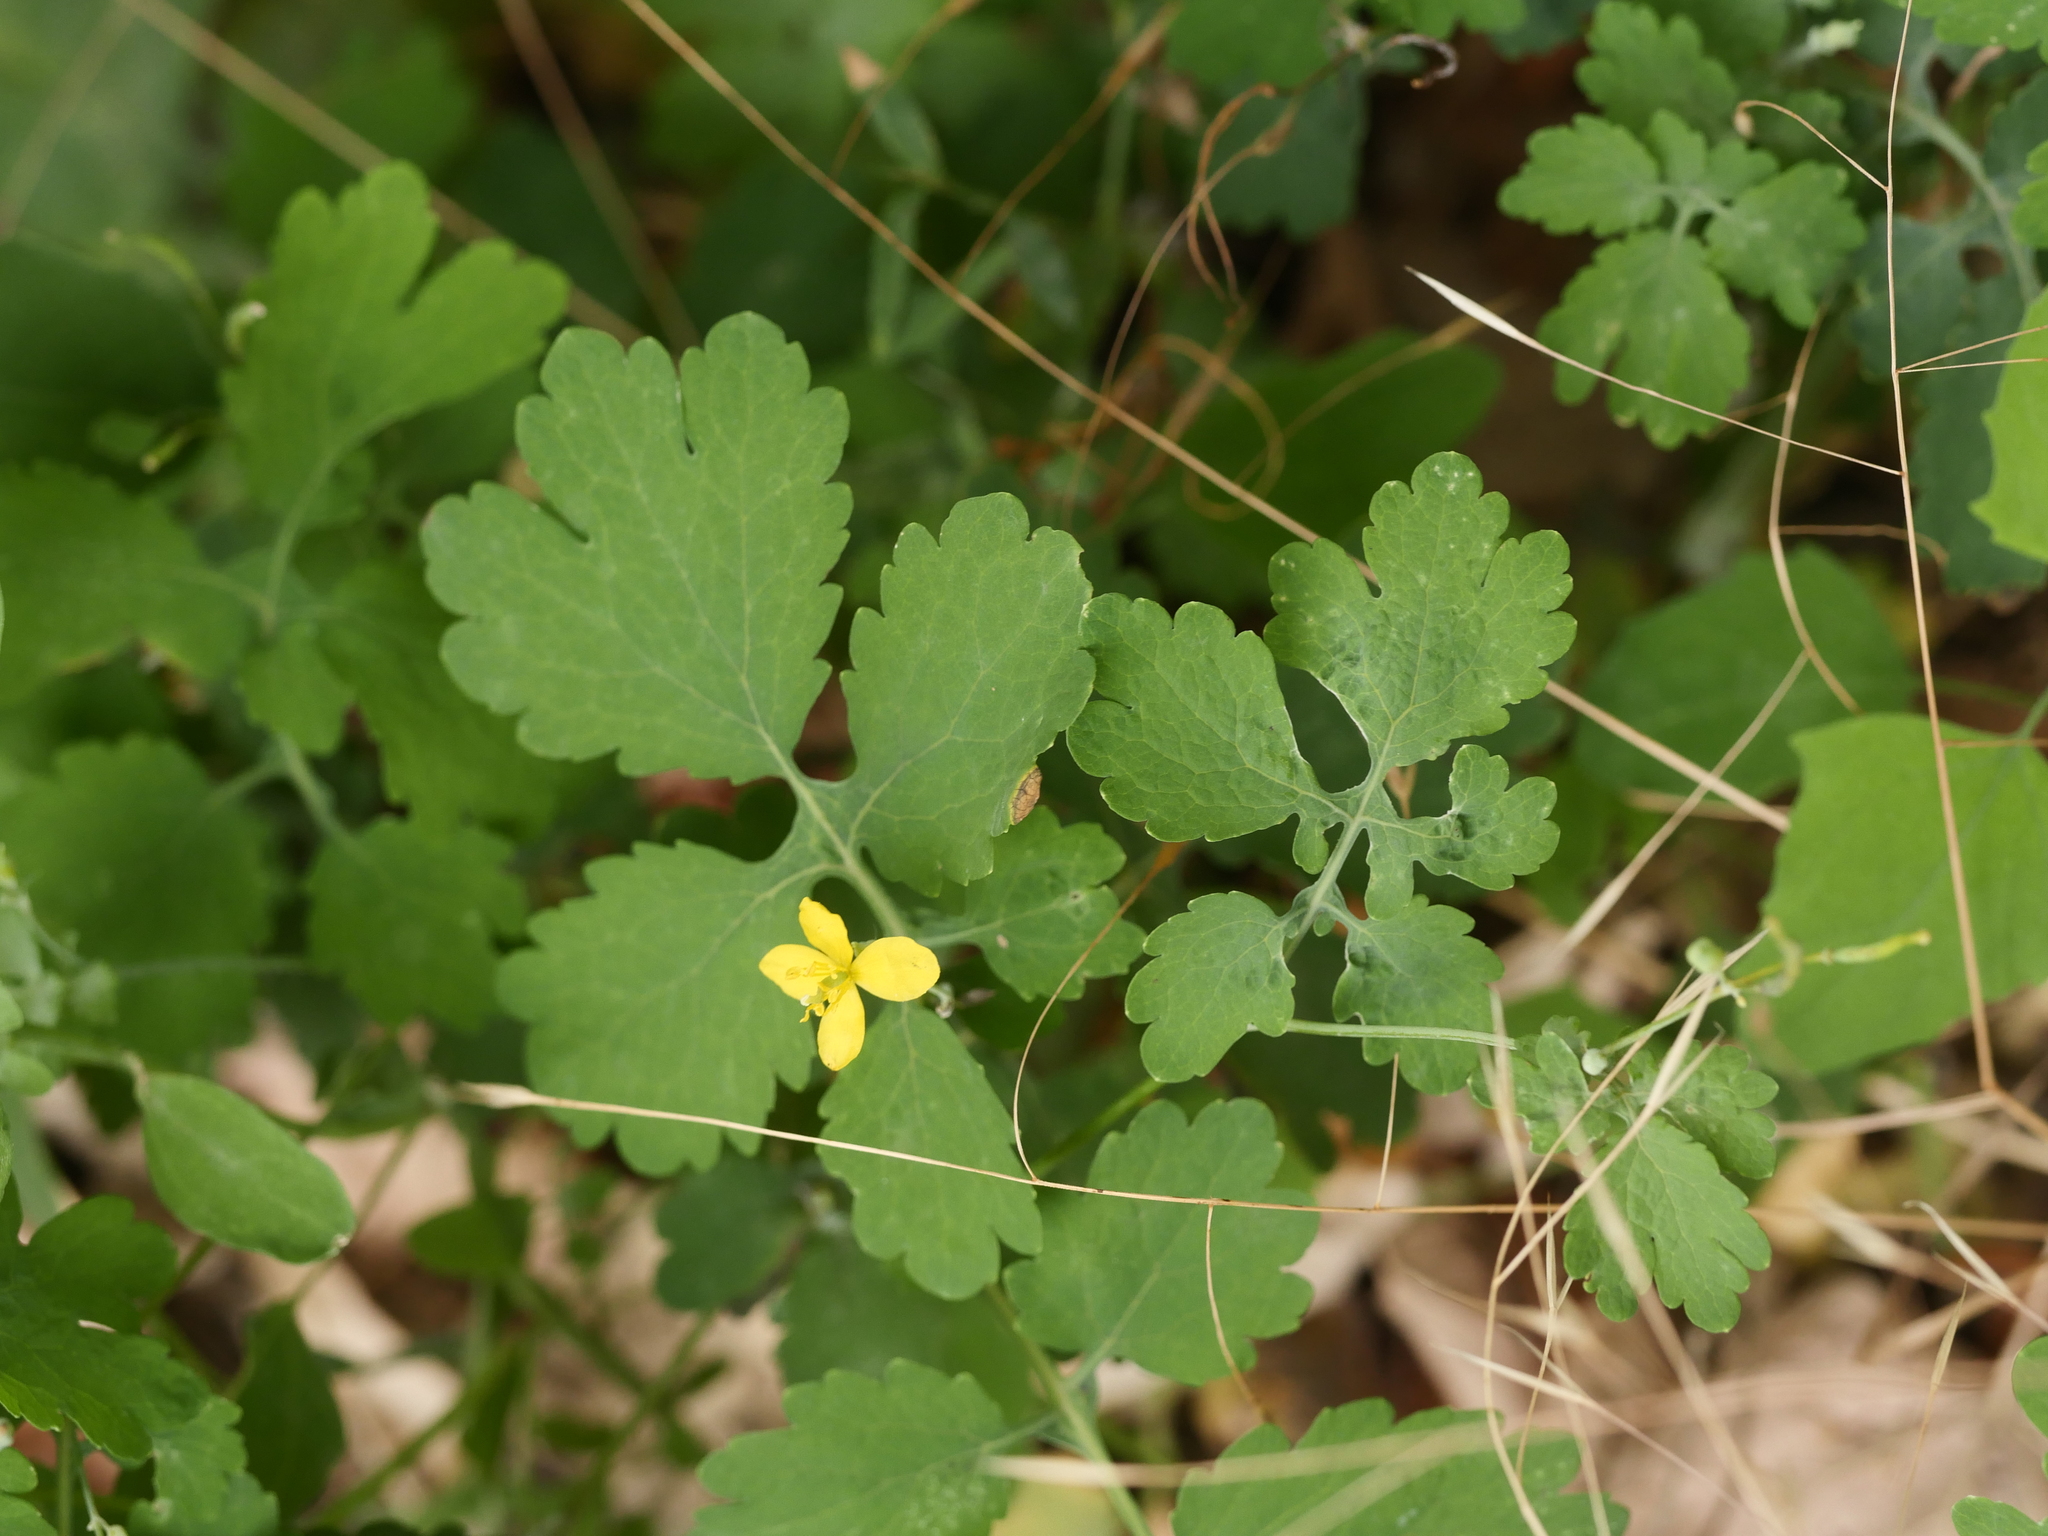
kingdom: Plantae
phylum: Tracheophyta
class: Magnoliopsida
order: Ranunculales
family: Papaveraceae
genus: Chelidonium
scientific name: Chelidonium majus
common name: Greater celandine
